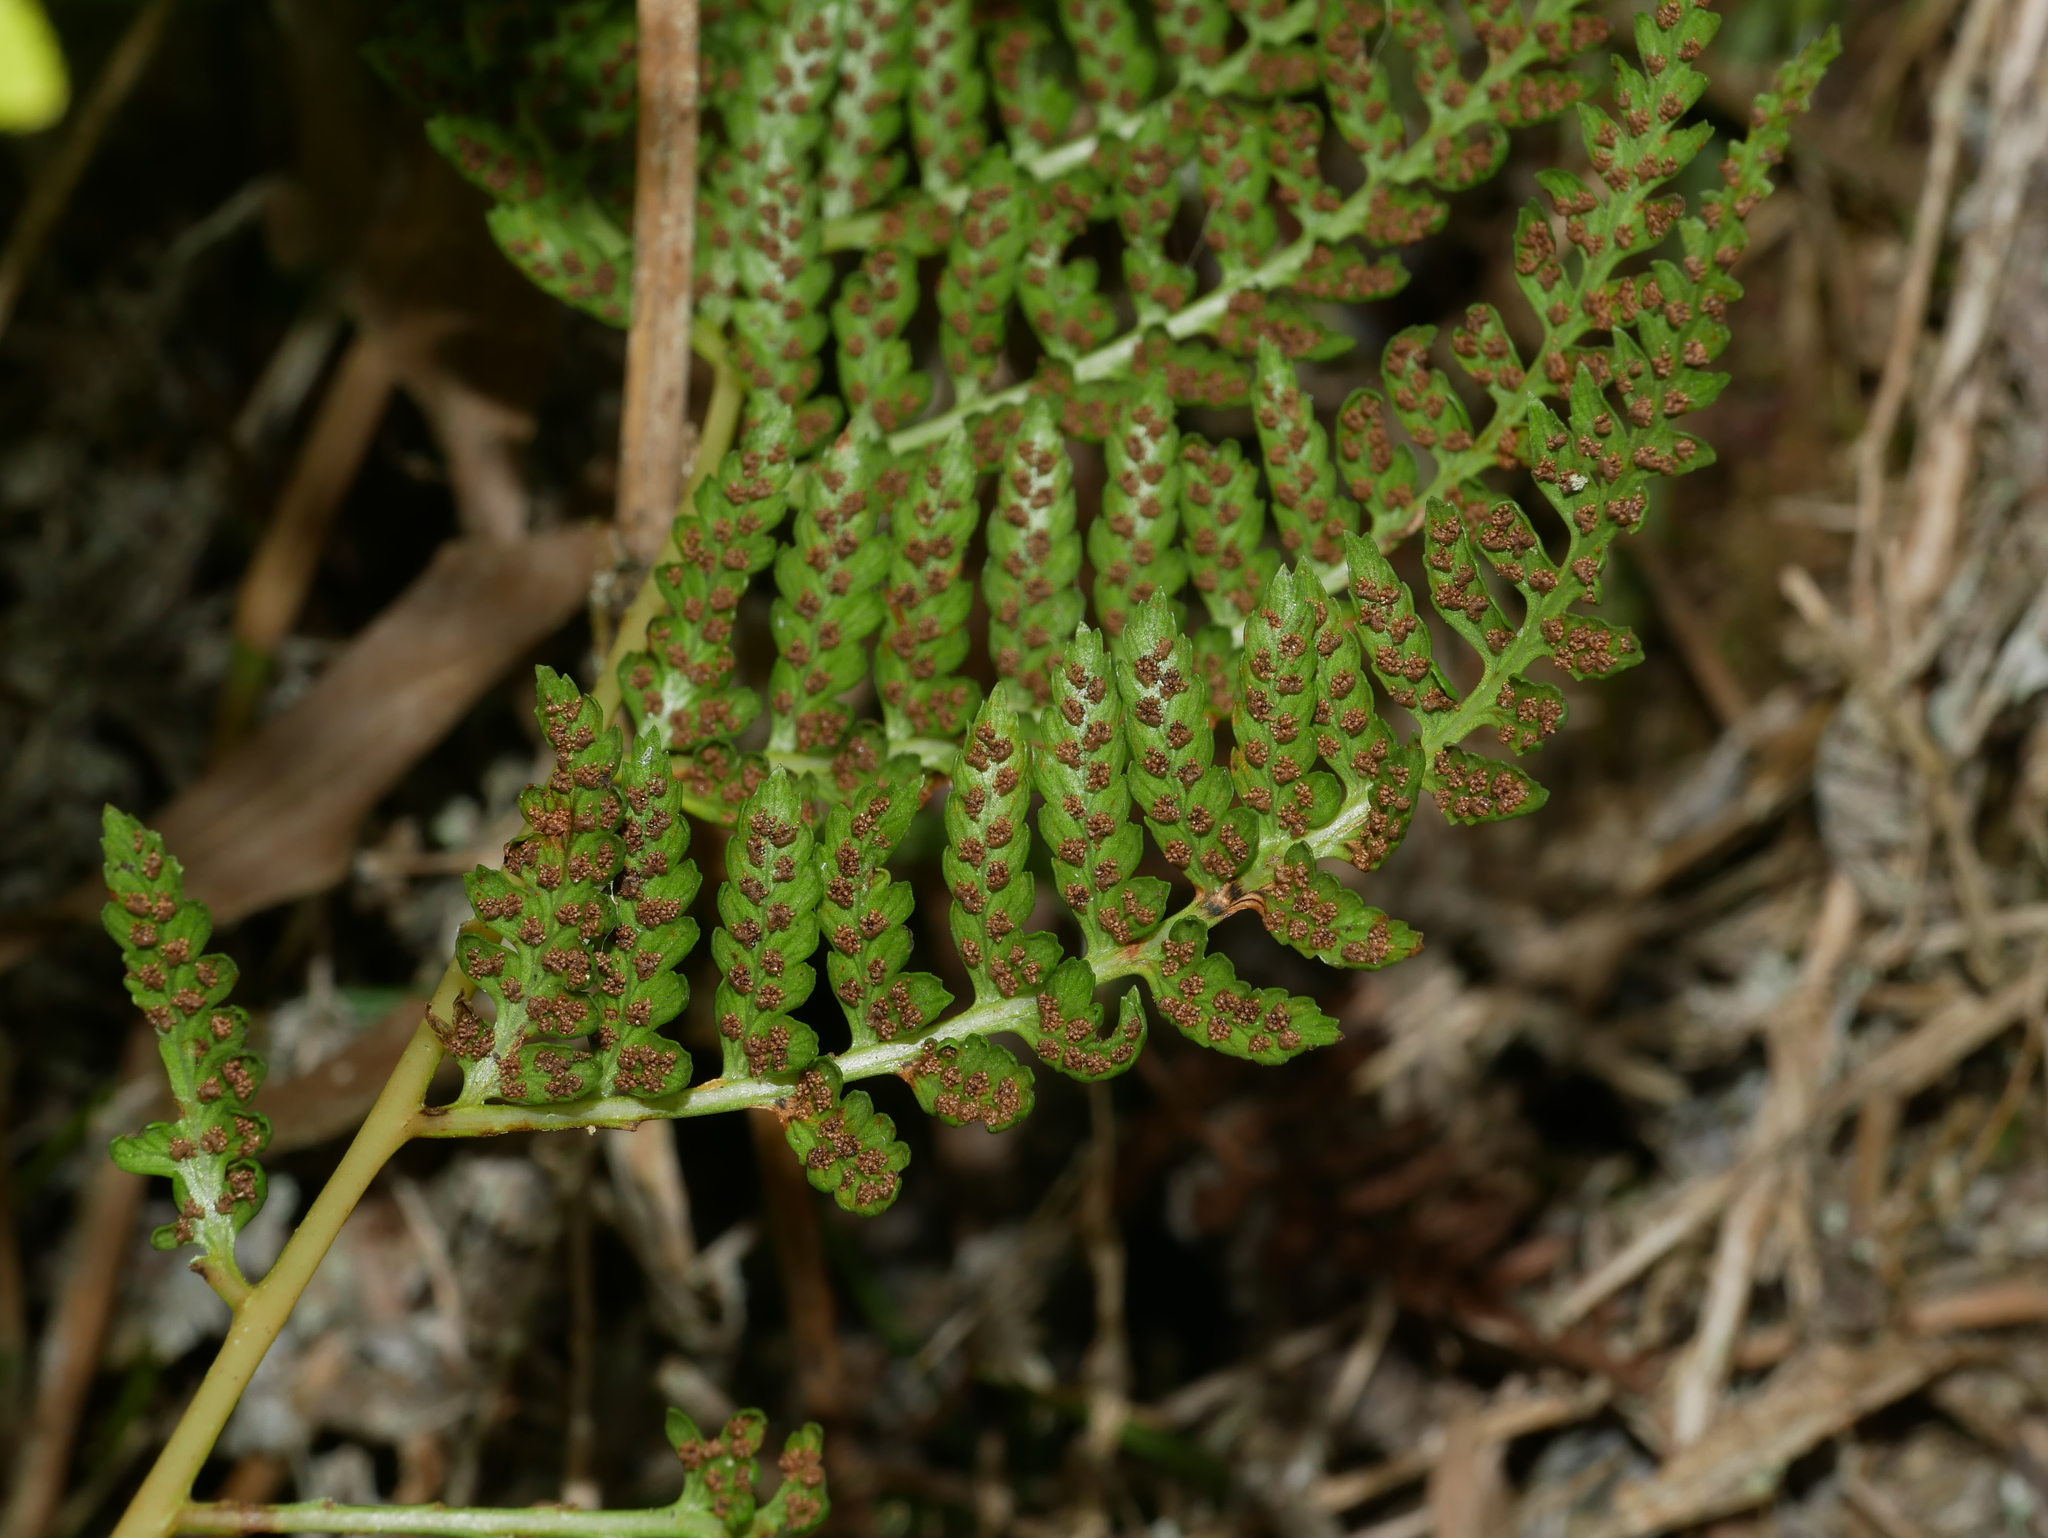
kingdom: Plantae
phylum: Tracheophyta
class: Polypodiopsida
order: Polypodiales
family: Athyriaceae
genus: Athyrium
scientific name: Athyrium drepanopteron
